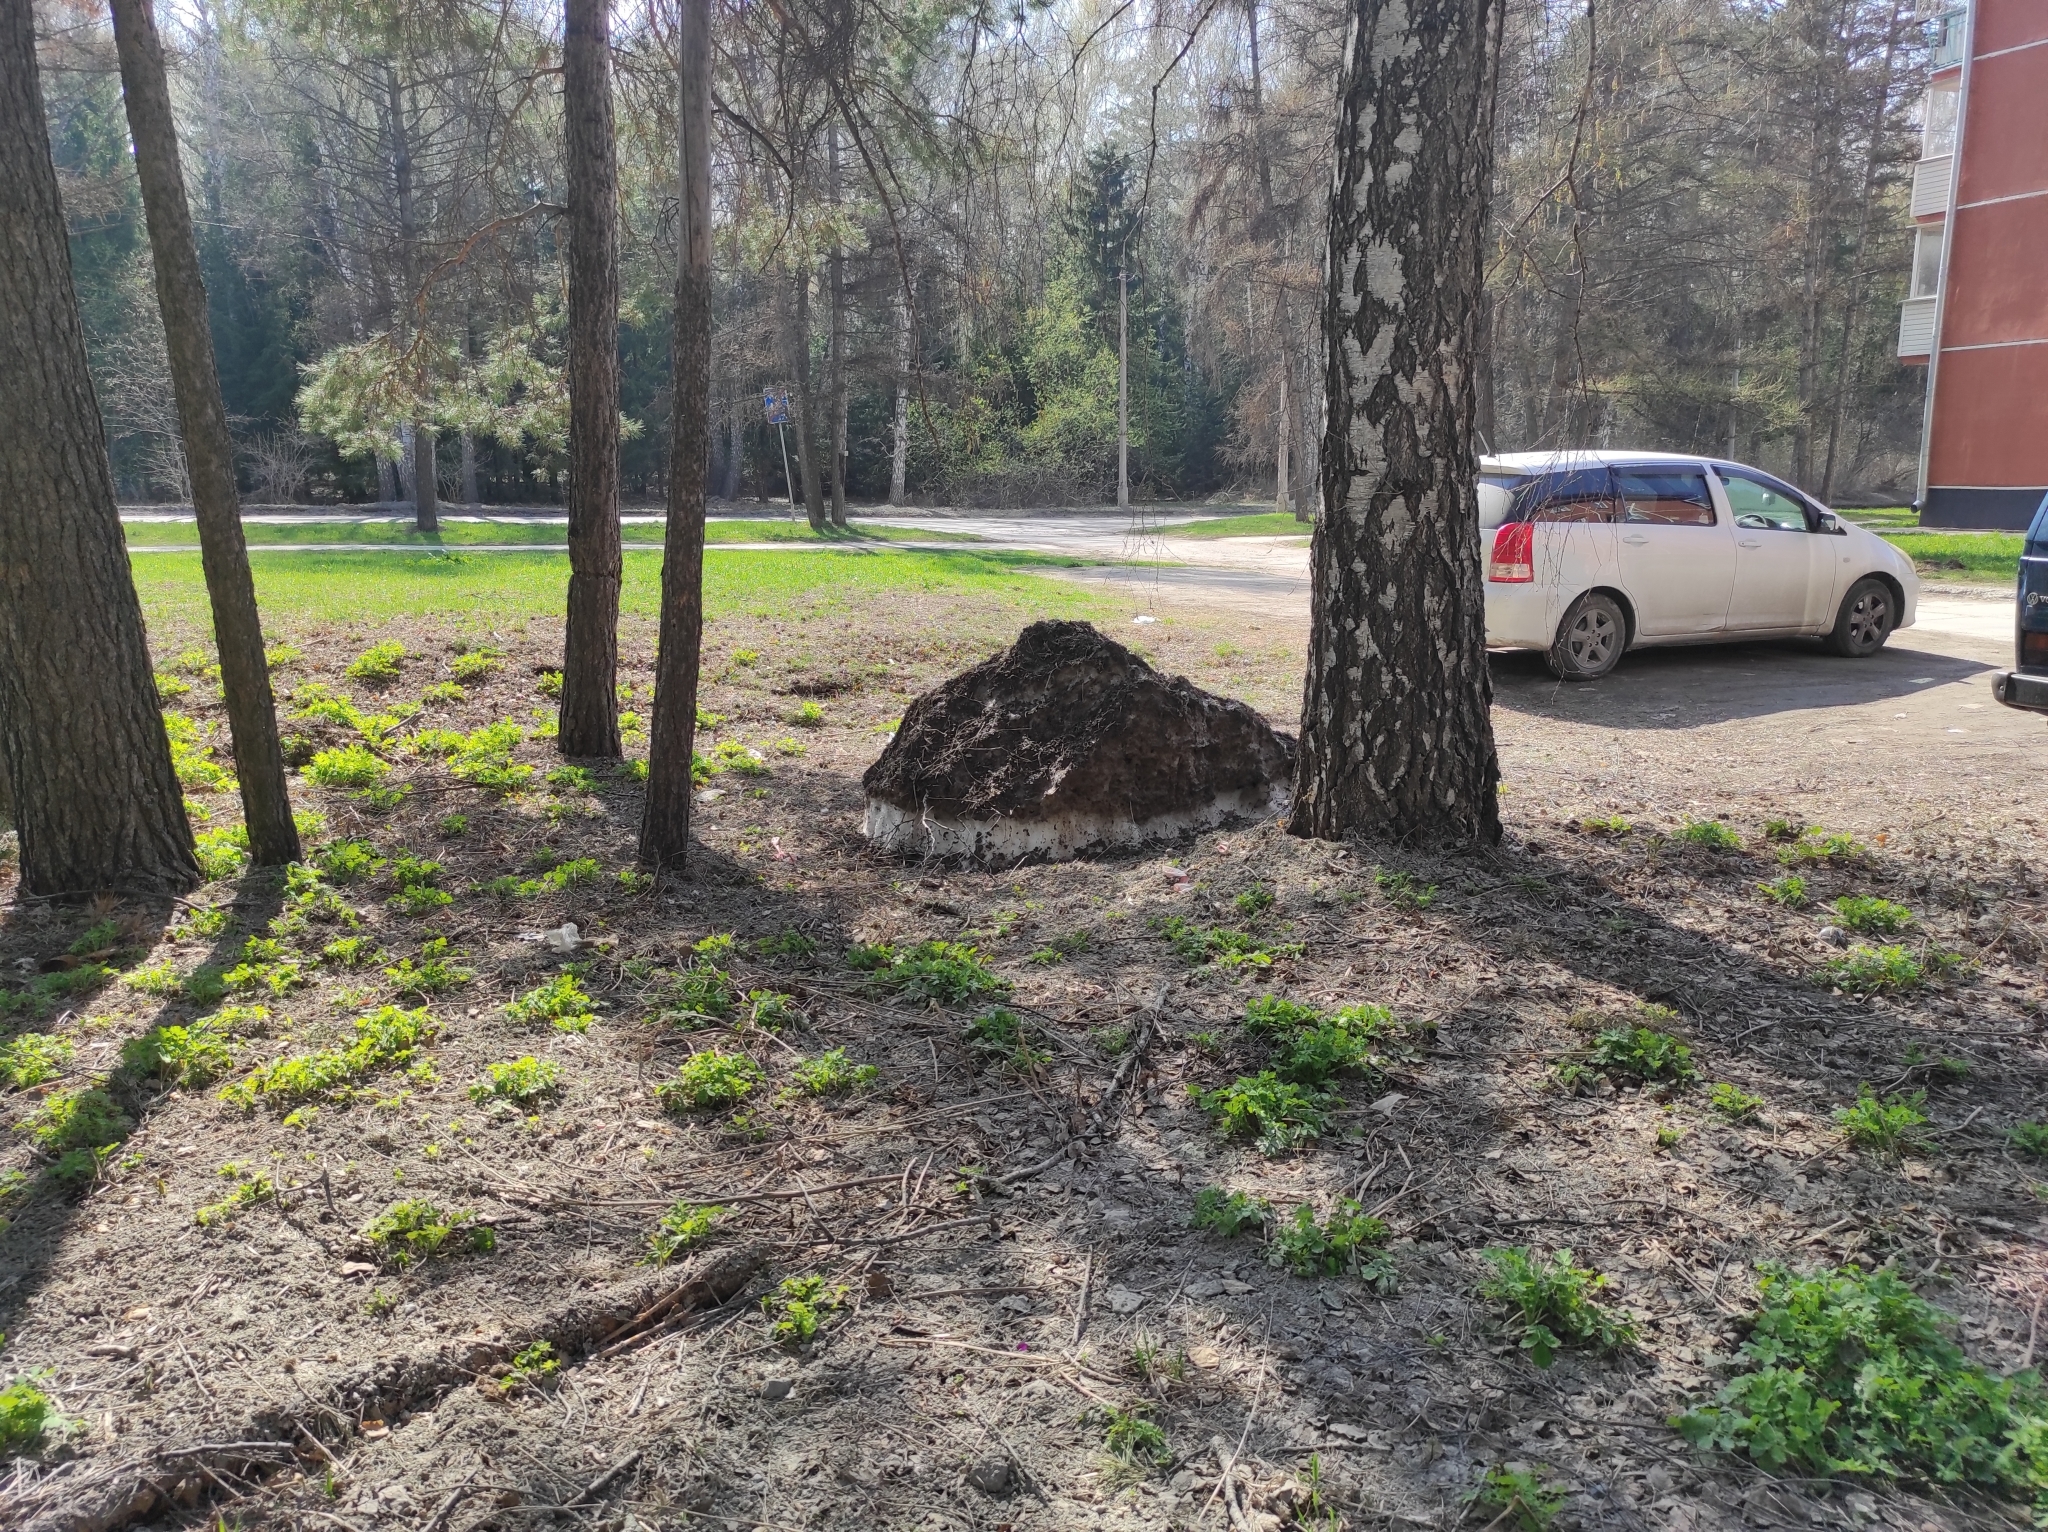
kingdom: Plantae
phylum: Tracheophyta
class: Pinopsida
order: Pinales
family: Pinaceae
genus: Pinus
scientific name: Pinus sylvestris
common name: Scots pine
